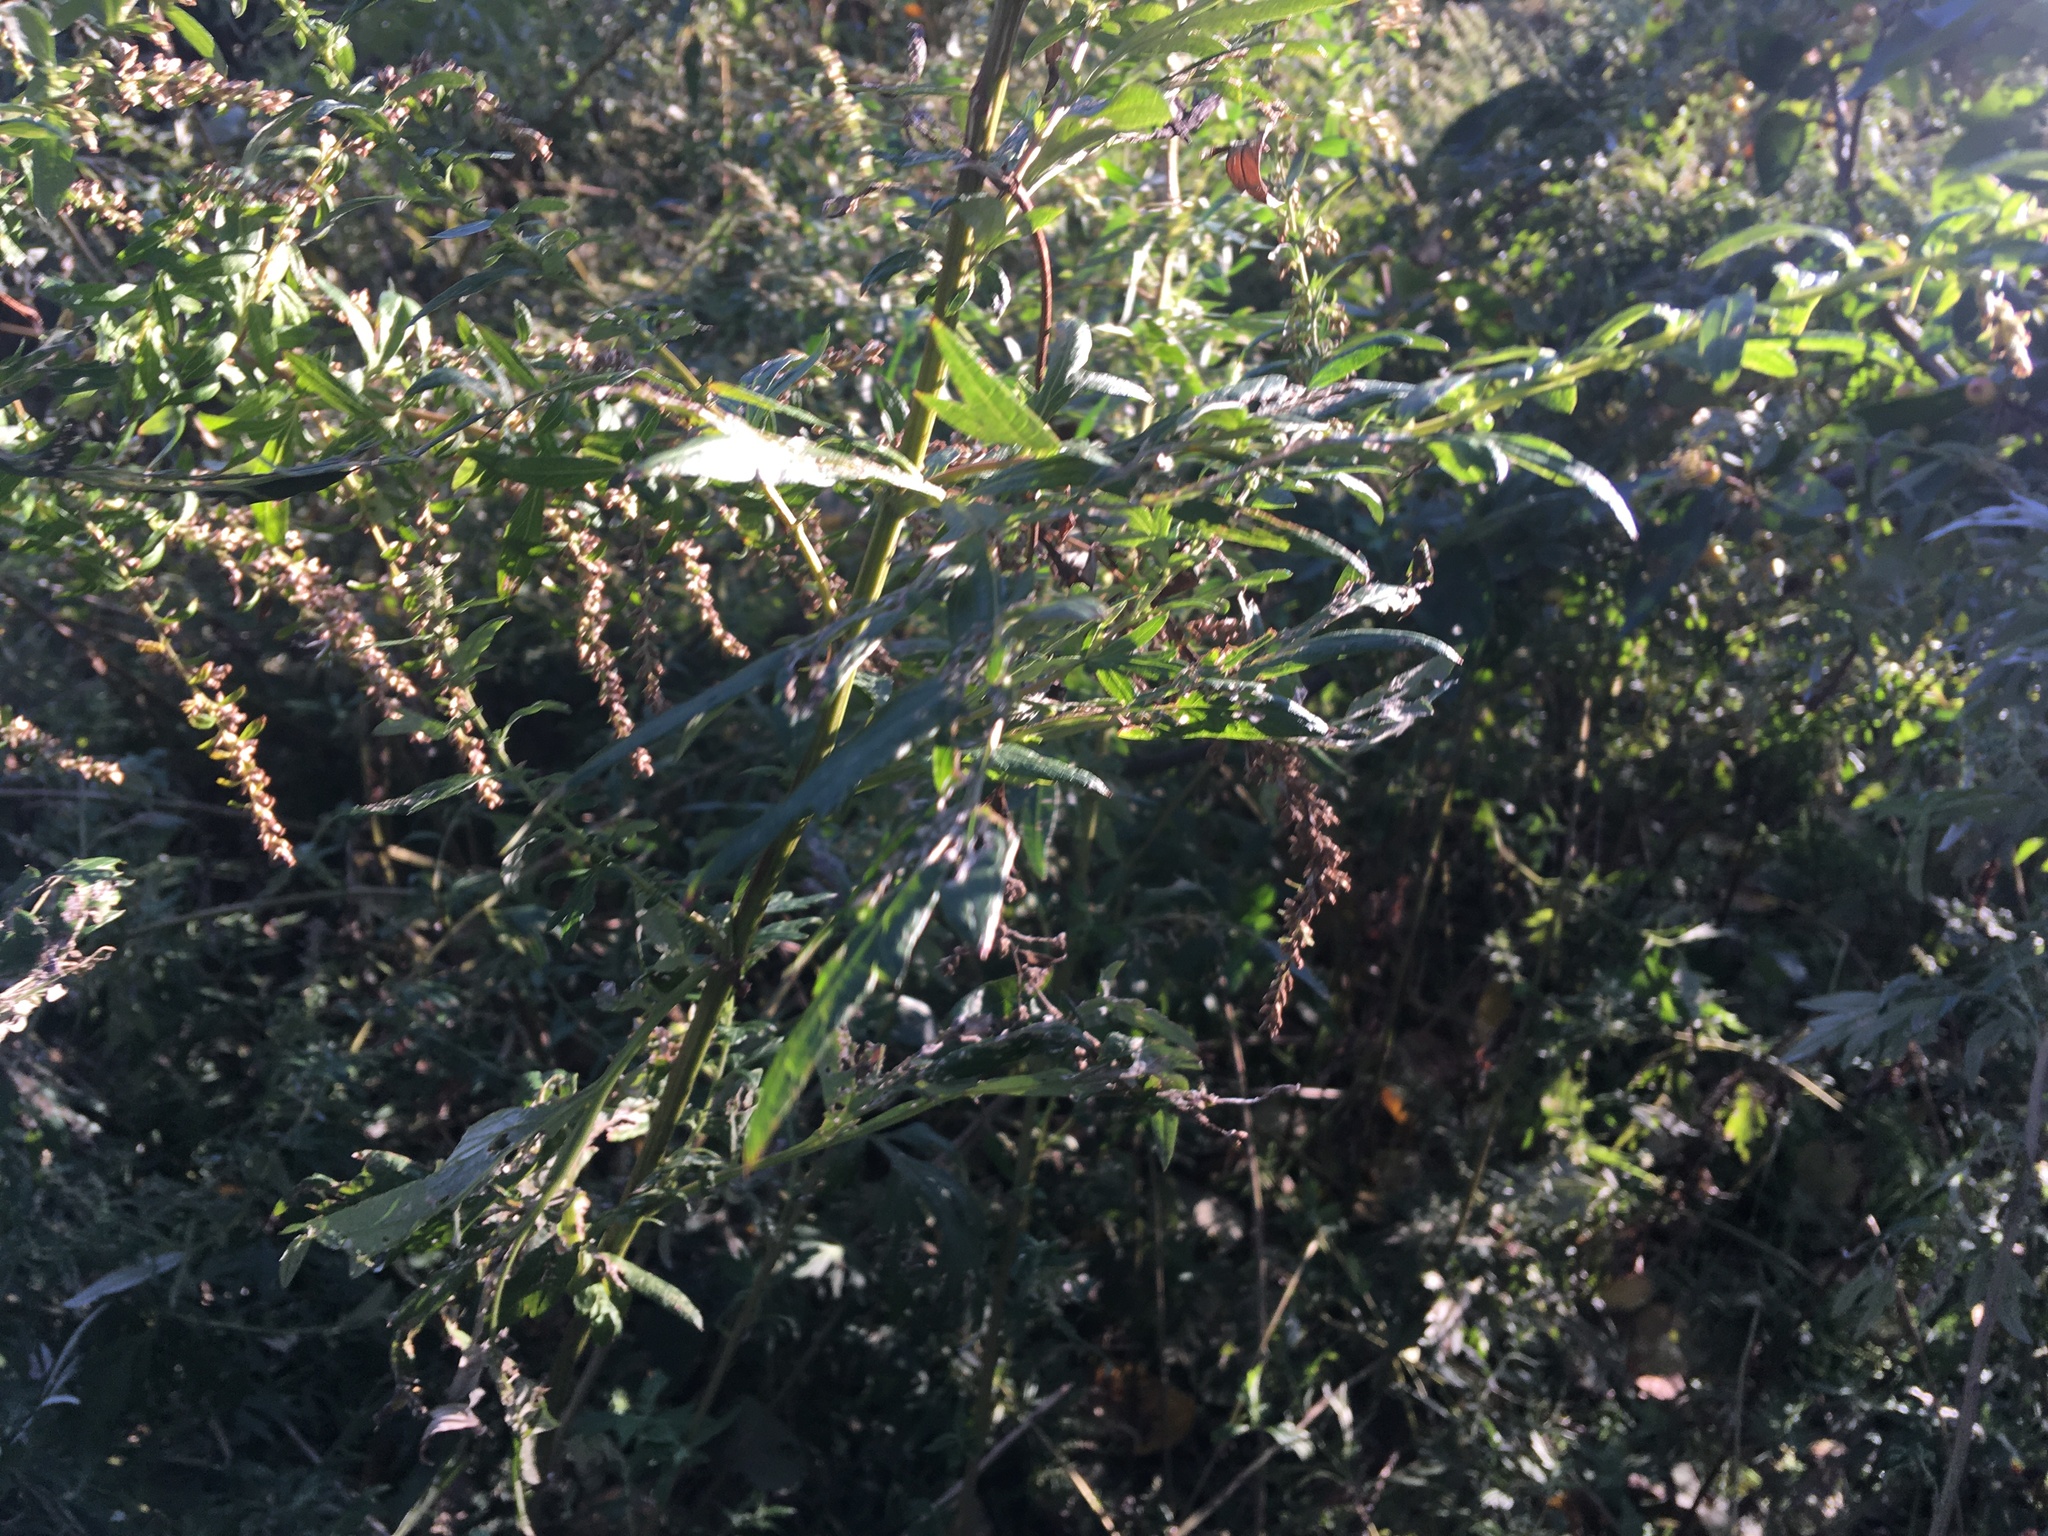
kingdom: Plantae
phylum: Tracheophyta
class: Magnoliopsida
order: Asterales
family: Asteraceae
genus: Artemisia
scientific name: Artemisia vulgaris
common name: Mugwort
